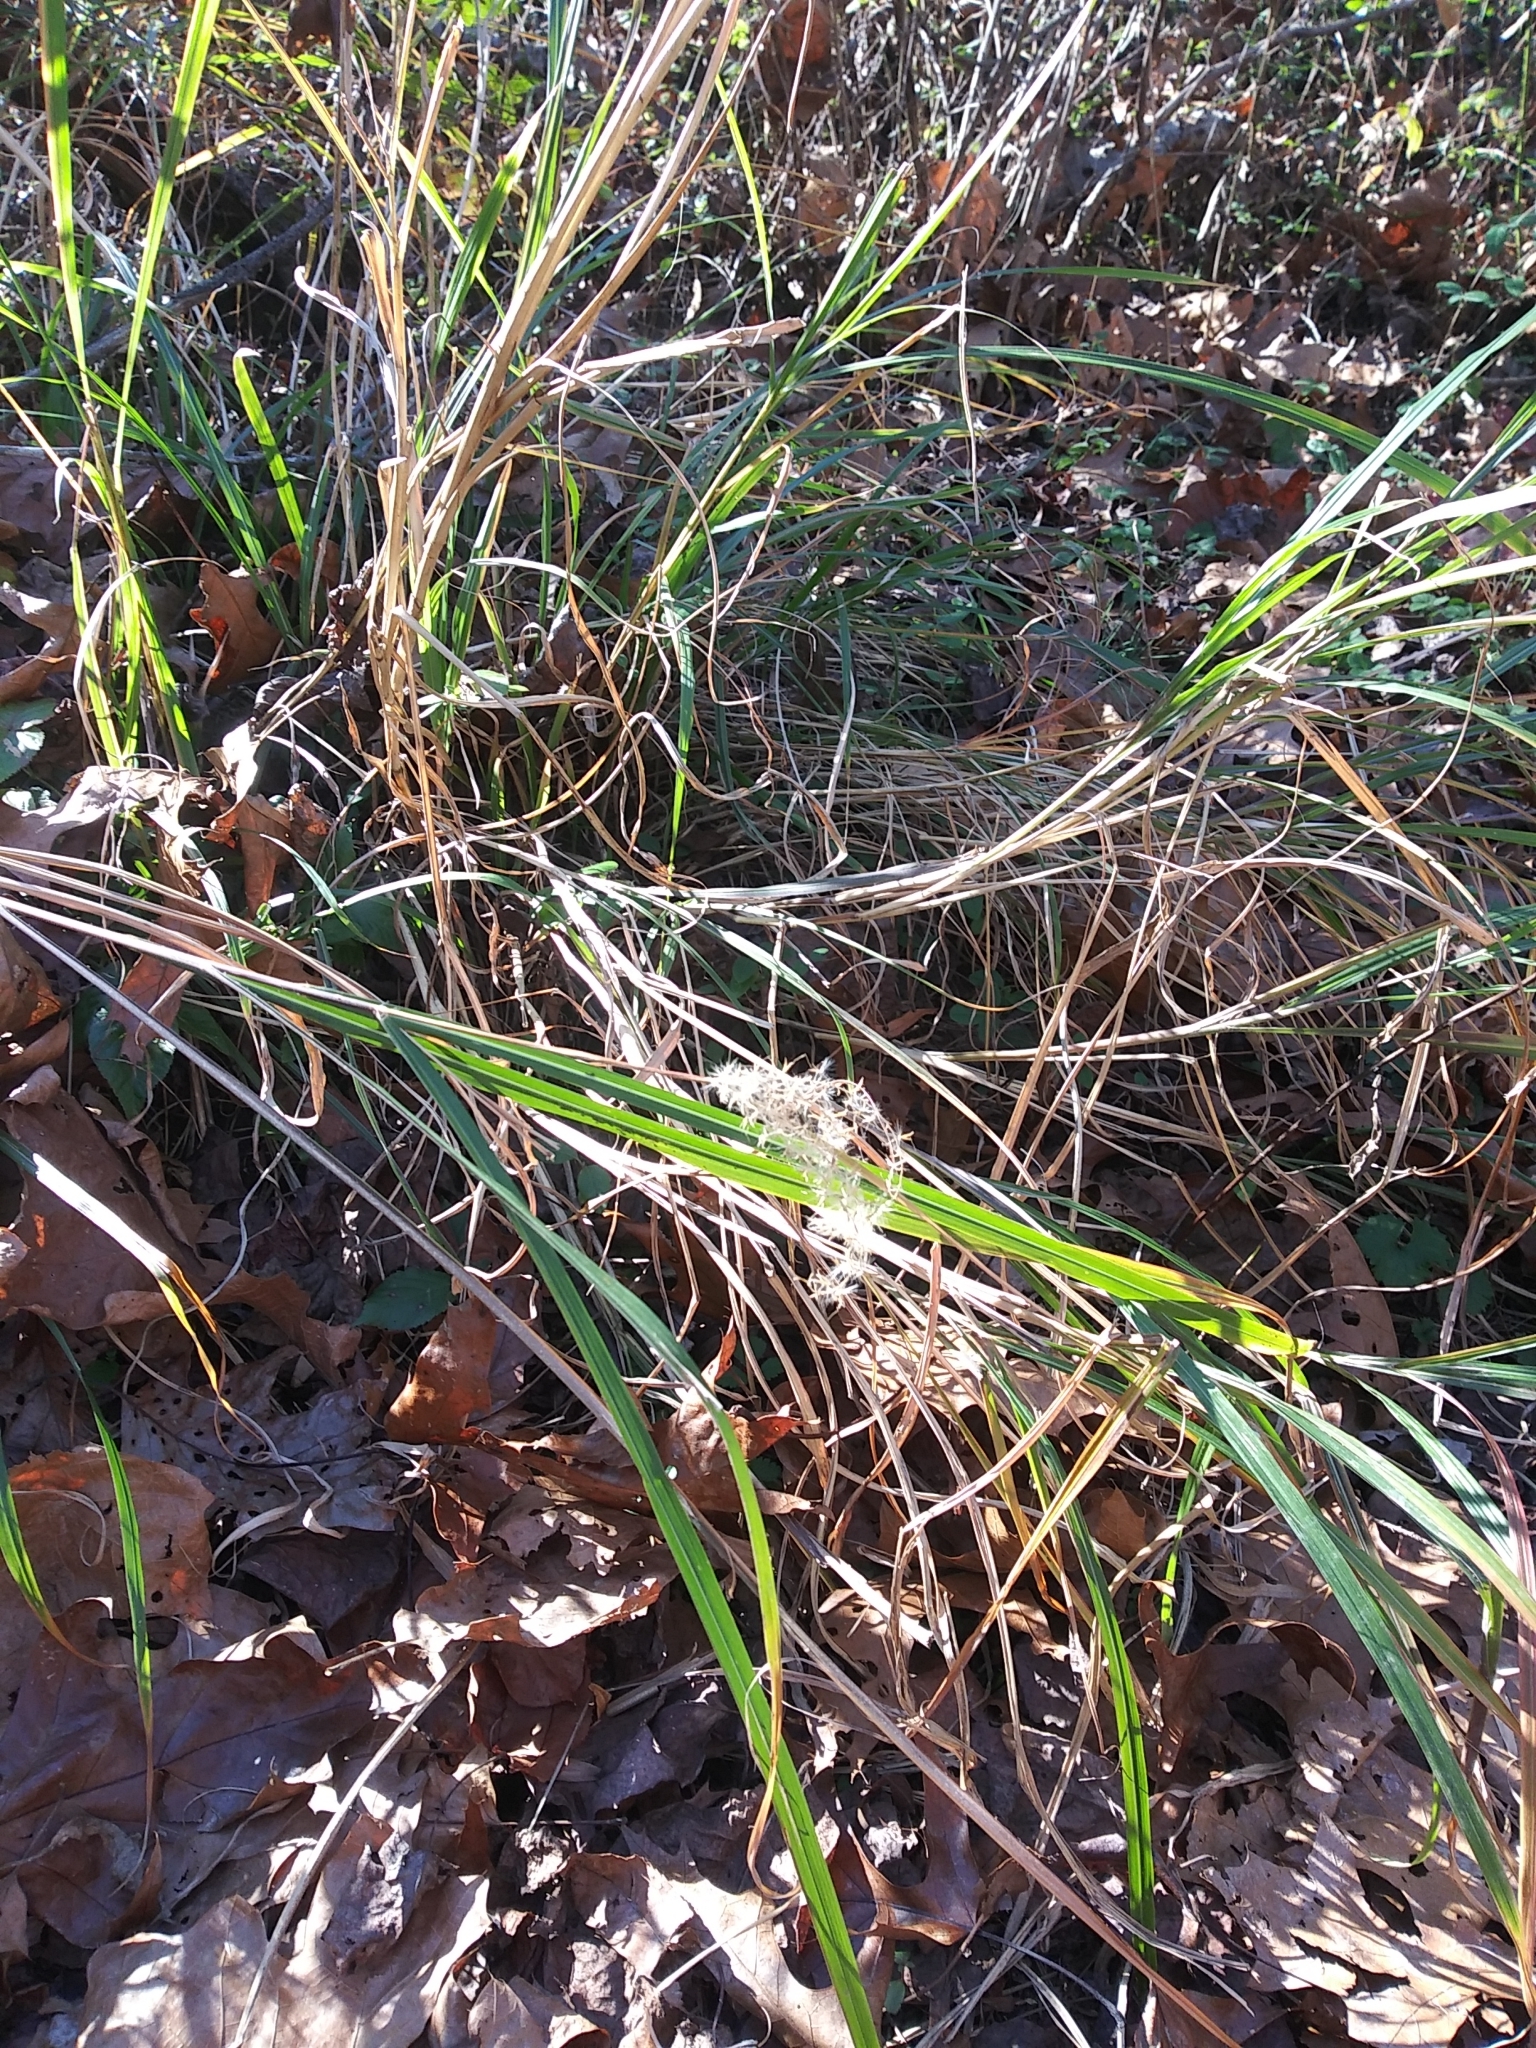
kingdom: Plantae
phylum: Tracheophyta
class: Liliopsida
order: Poales
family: Poaceae
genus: Miscanthus
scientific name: Miscanthus sinensis
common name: Chinese silvergrass
